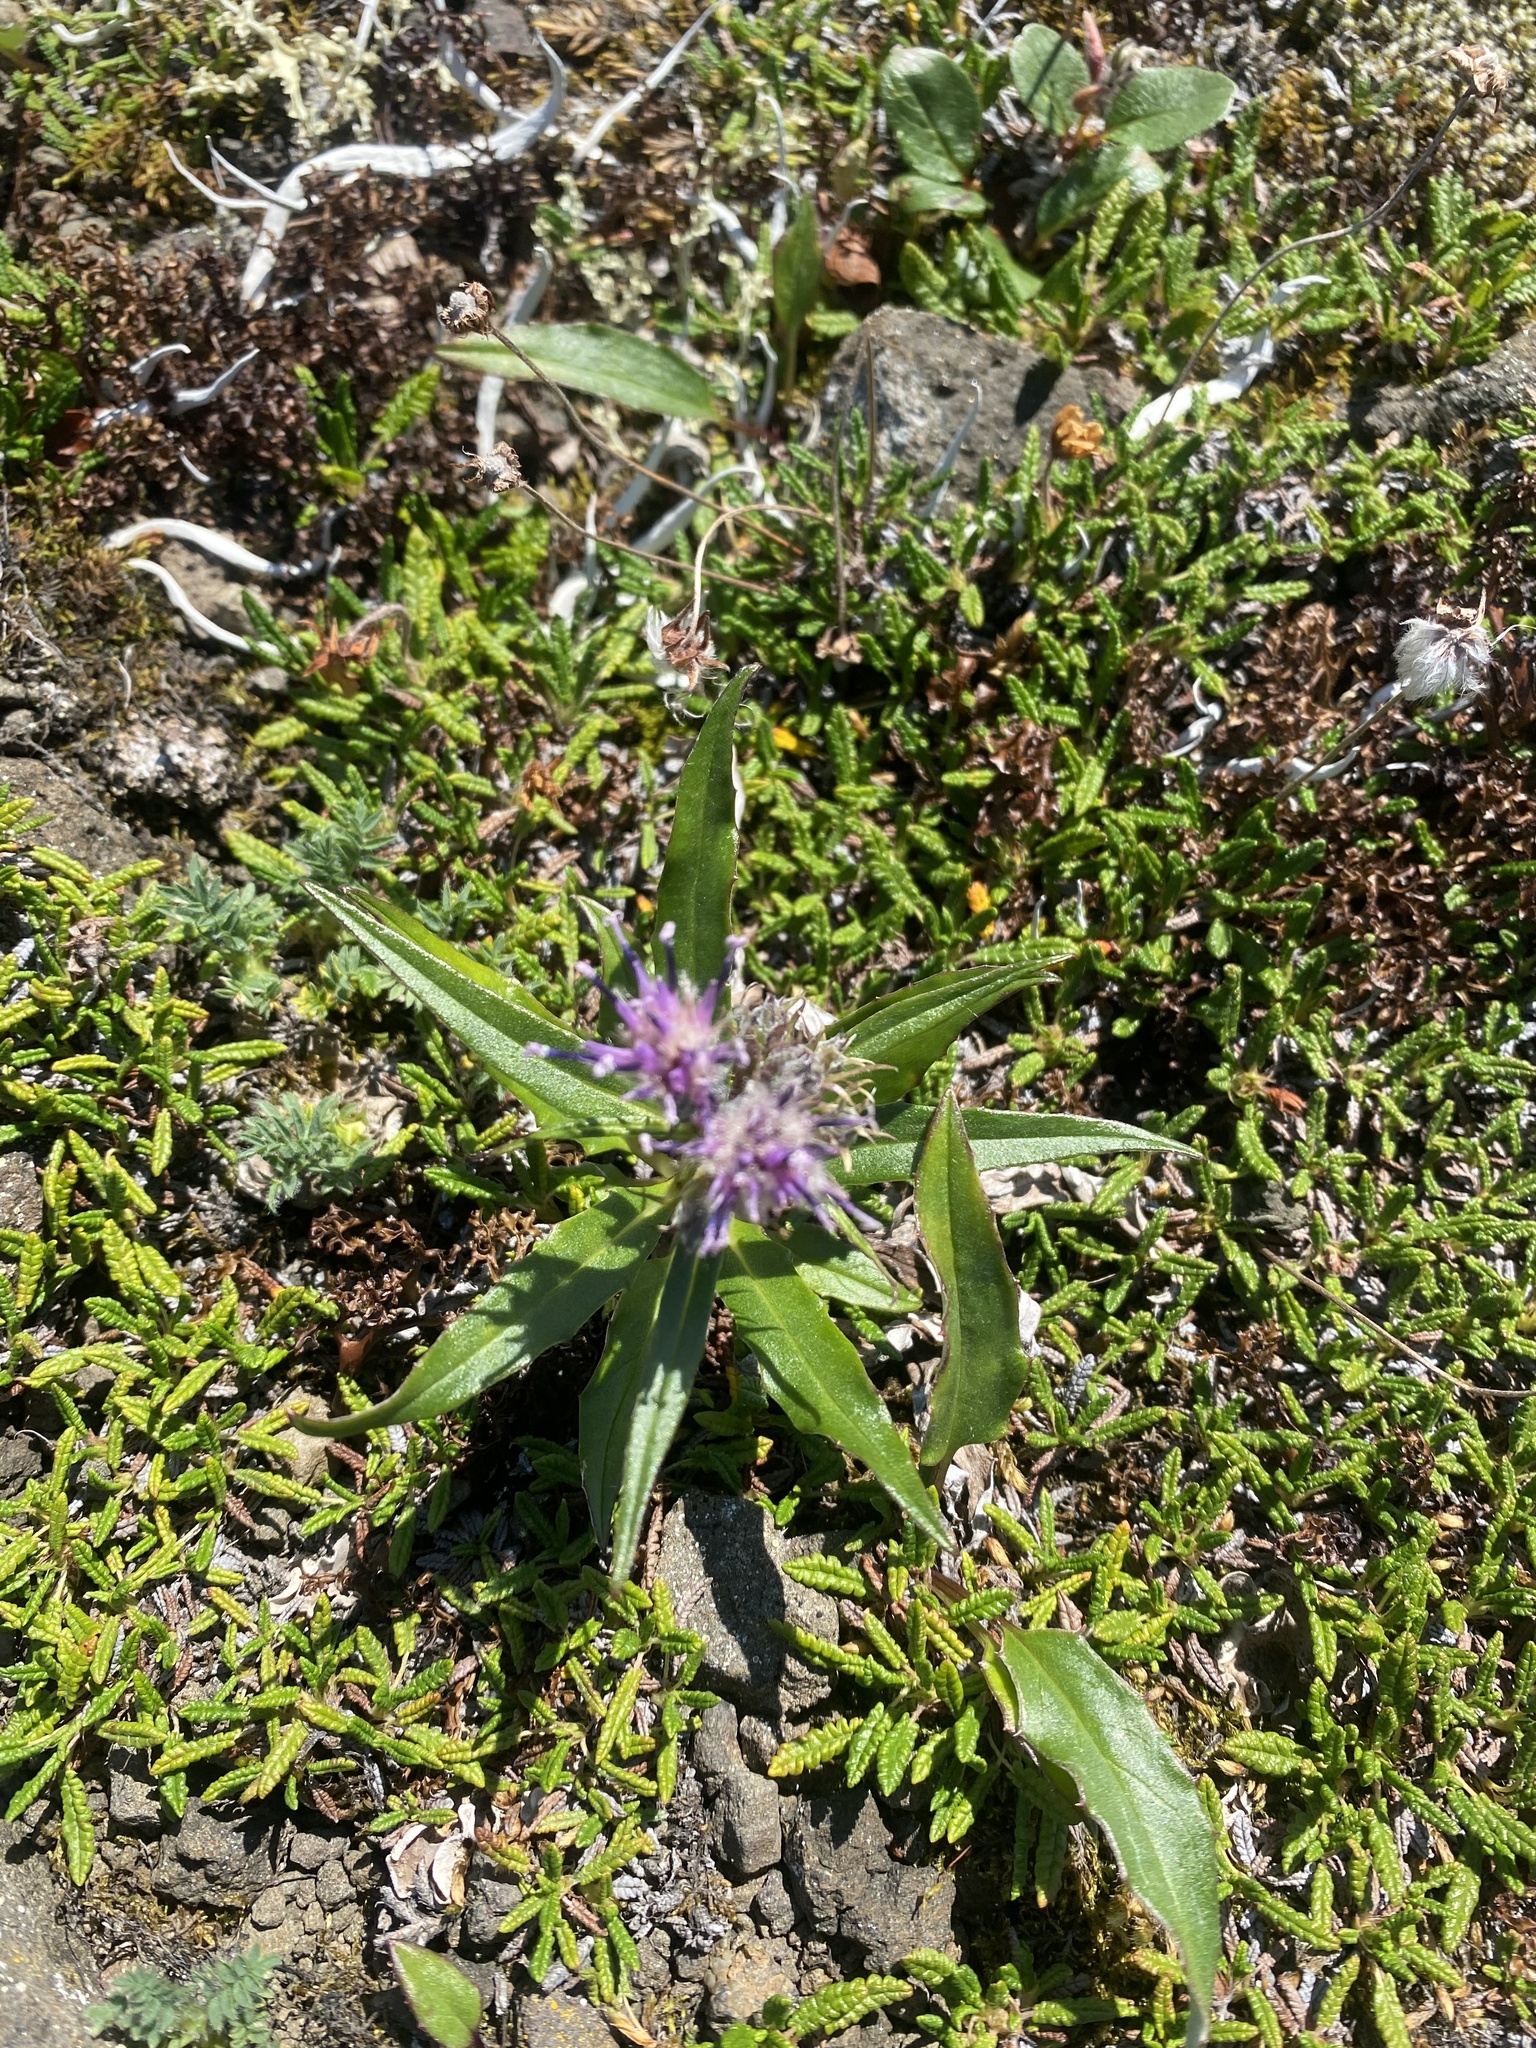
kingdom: Plantae
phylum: Tracheophyta
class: Magnoliopsida
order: Asterales
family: Asteraceae
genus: Saussurea
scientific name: Saussurea tilesii
